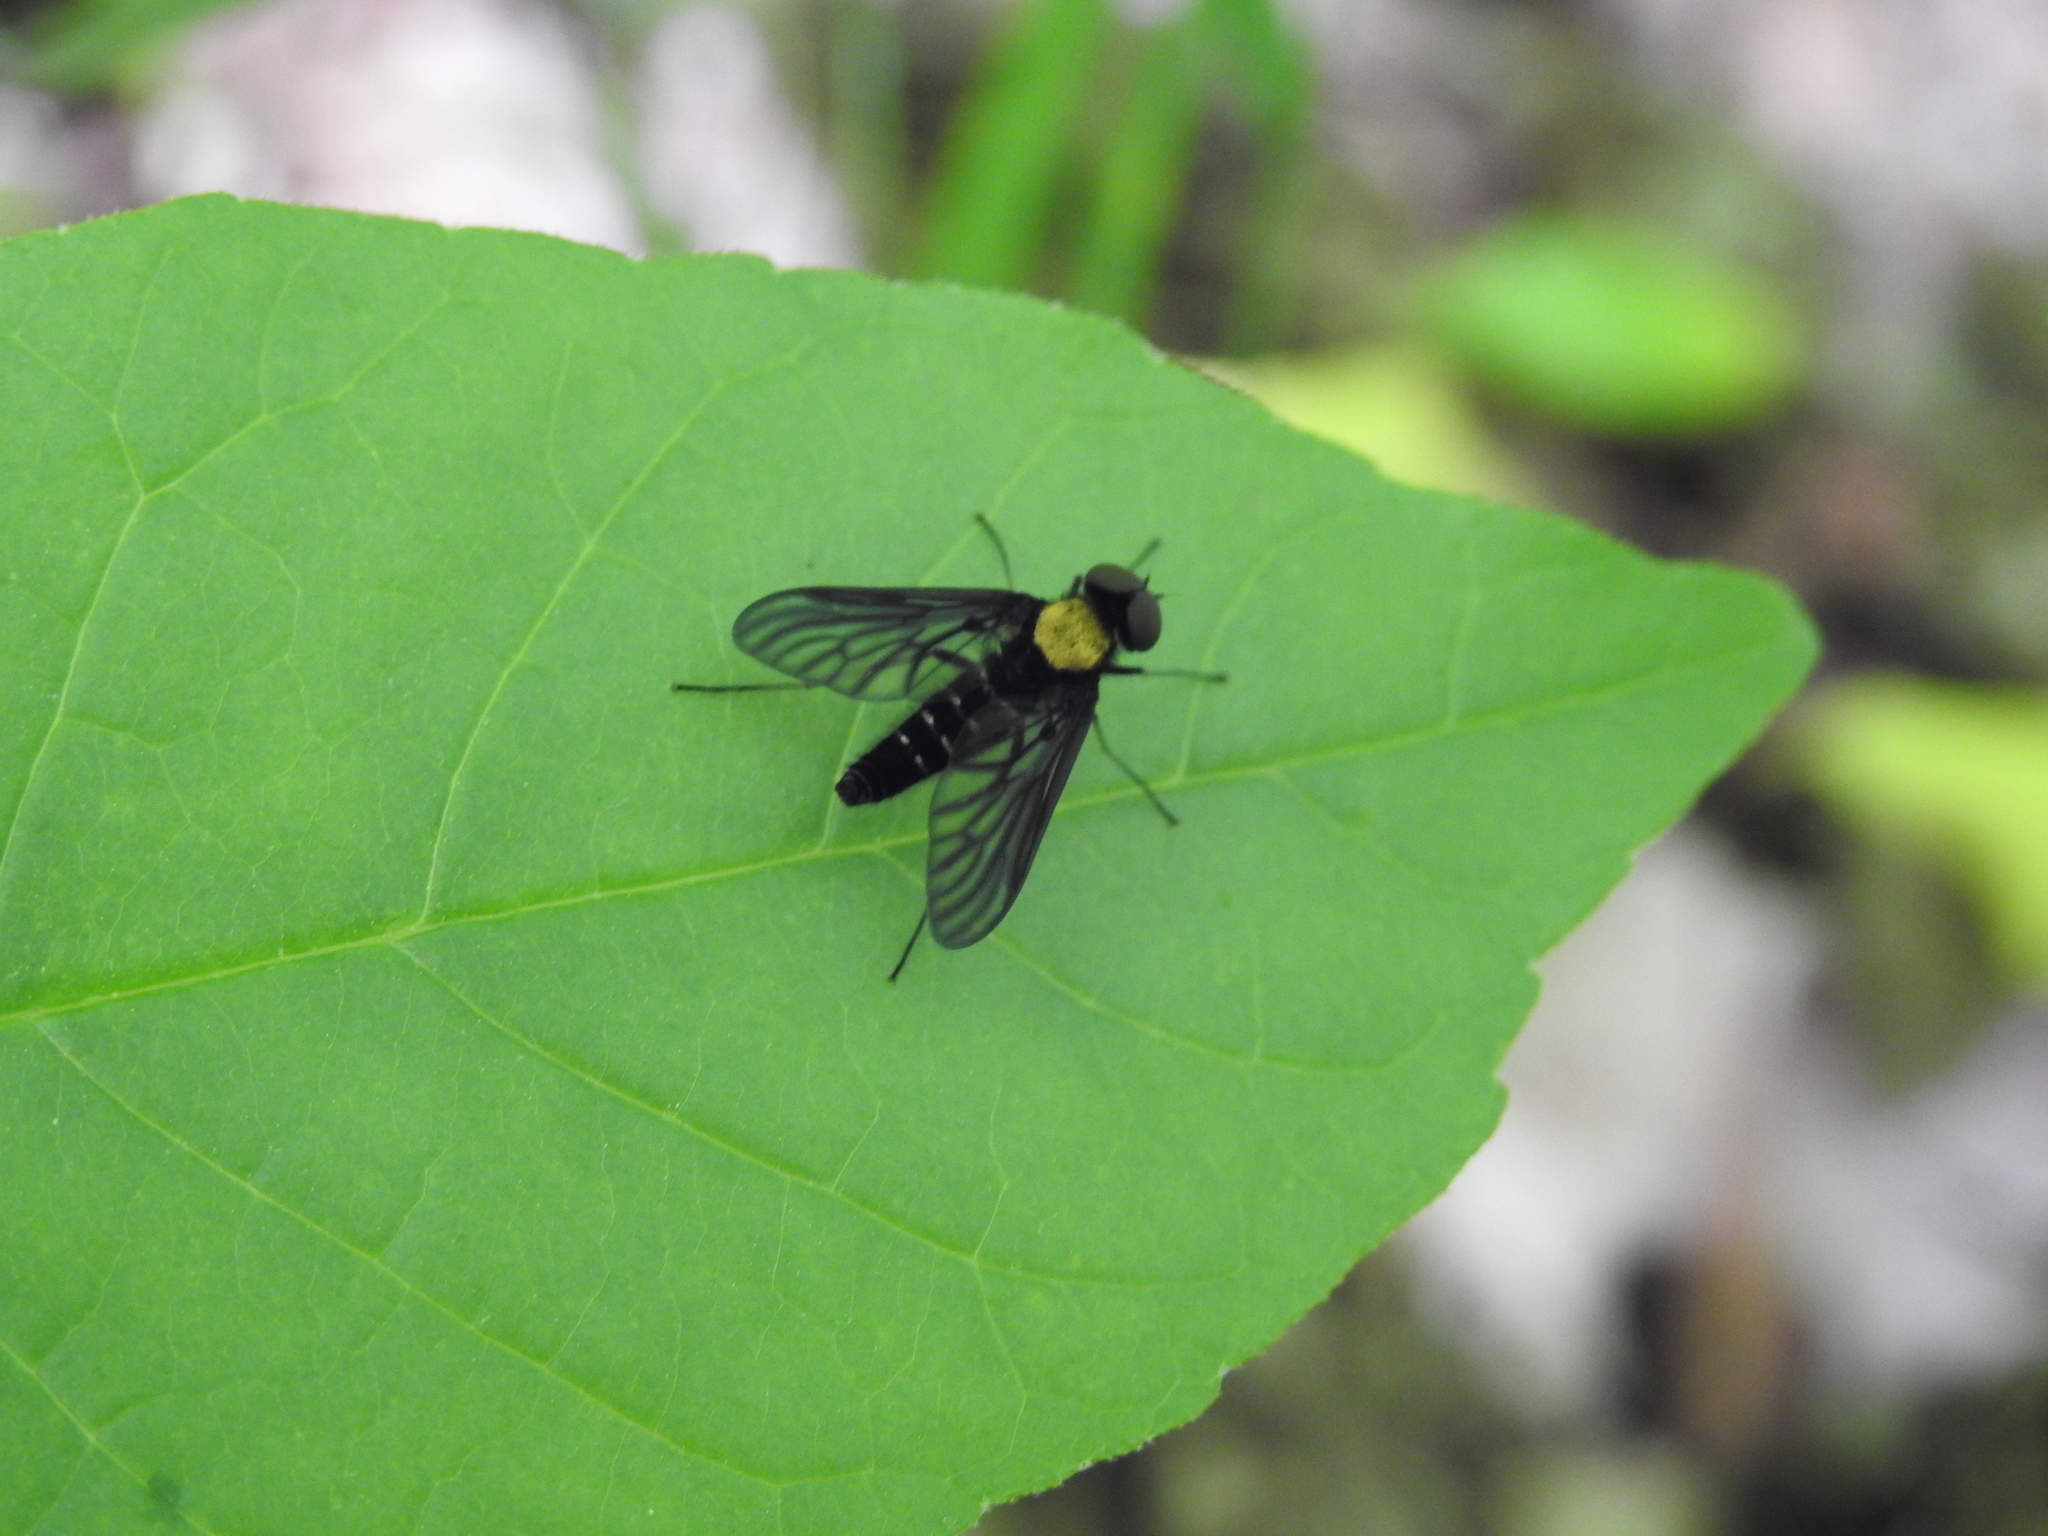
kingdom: Animalia
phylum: Arthropoda
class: Insecta
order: Diptera
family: Rhagionidae
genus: Chrysopilus
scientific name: Chrysopilus thoracicus
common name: Golden-backed snipe fly
